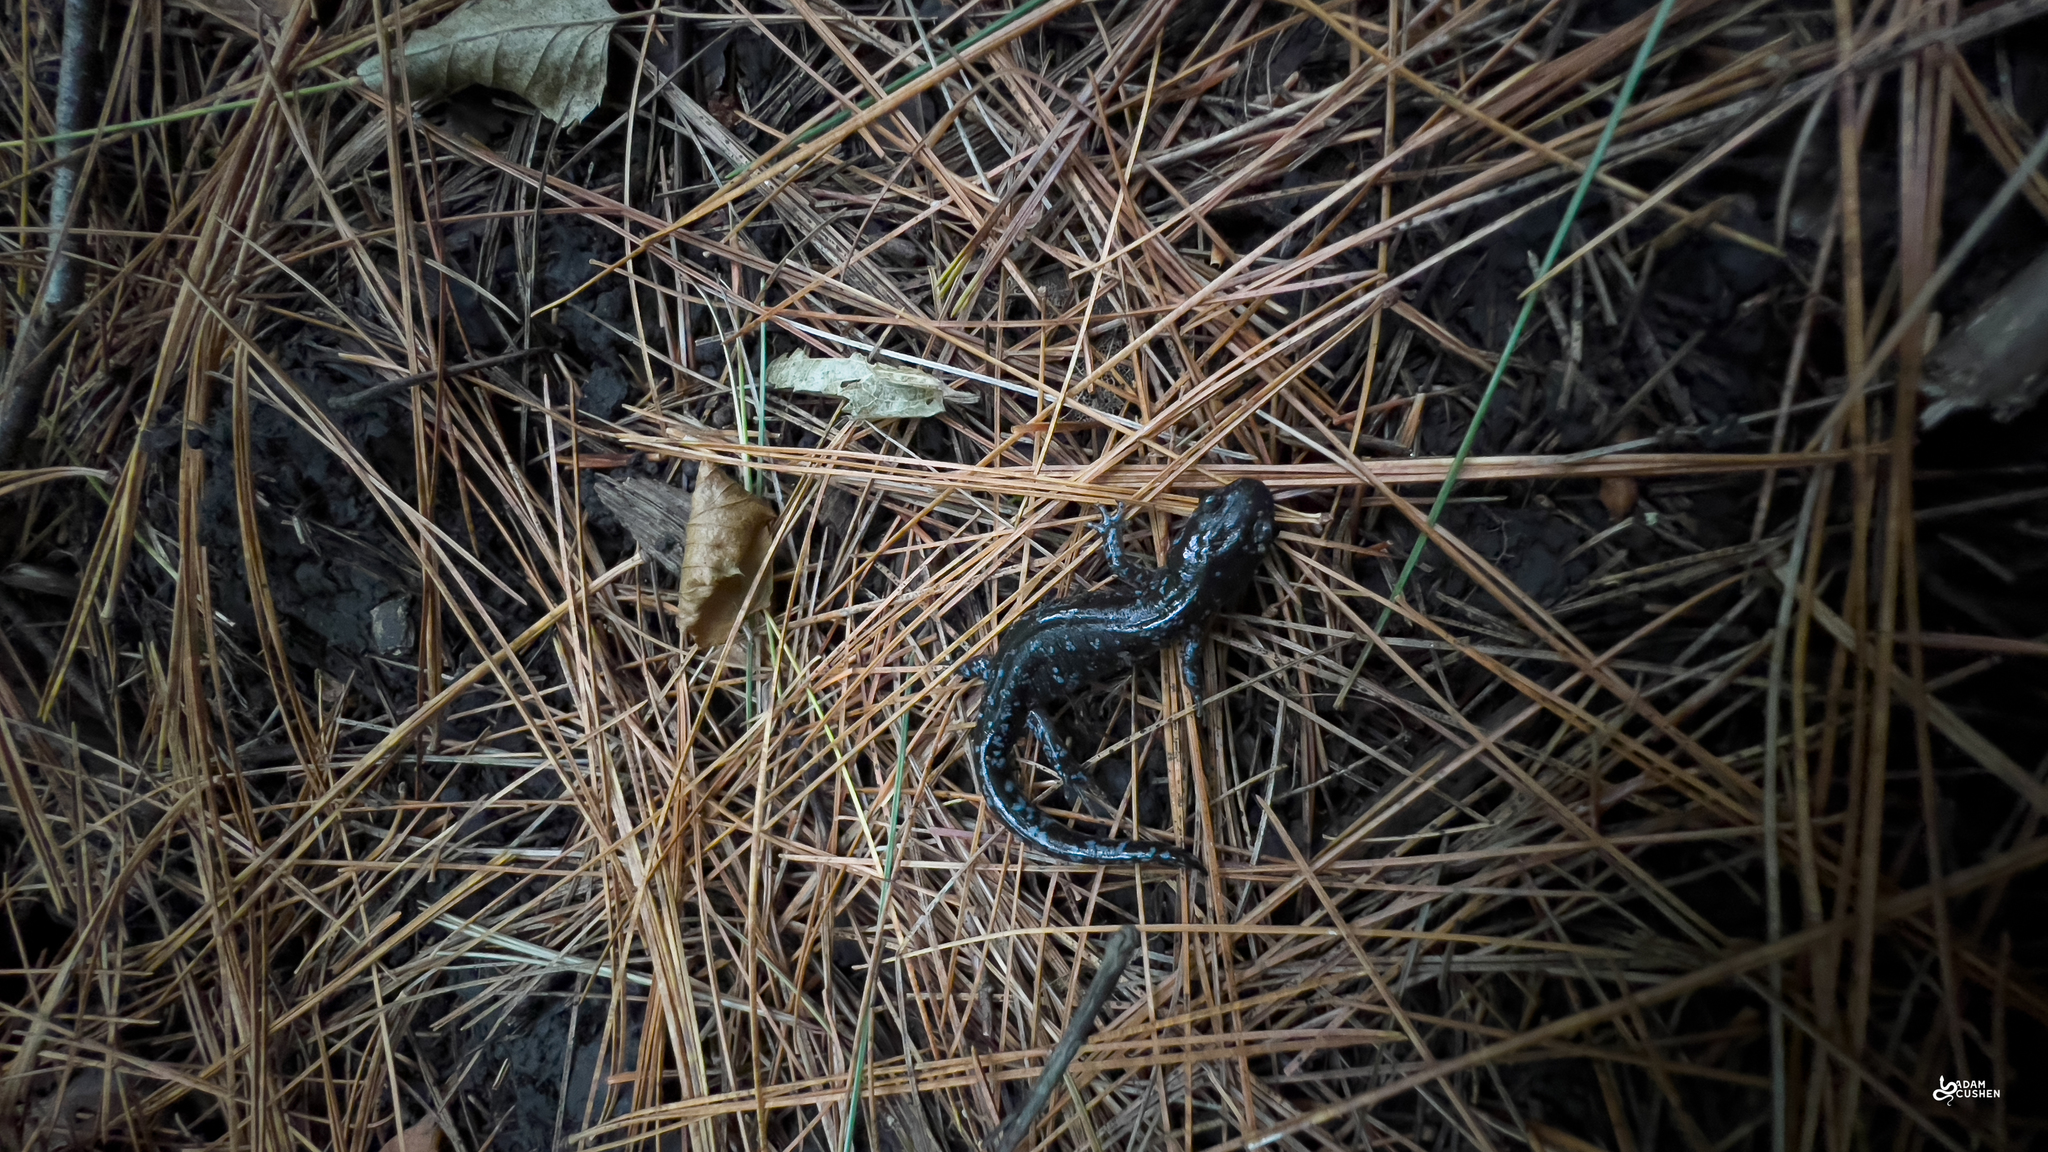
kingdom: Animalia
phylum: Chordata
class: Amphibia
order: Caudata
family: Ambystomatidae
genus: Ambystoma
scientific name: Ambystoma laterale
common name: Blue-spotted salamander
